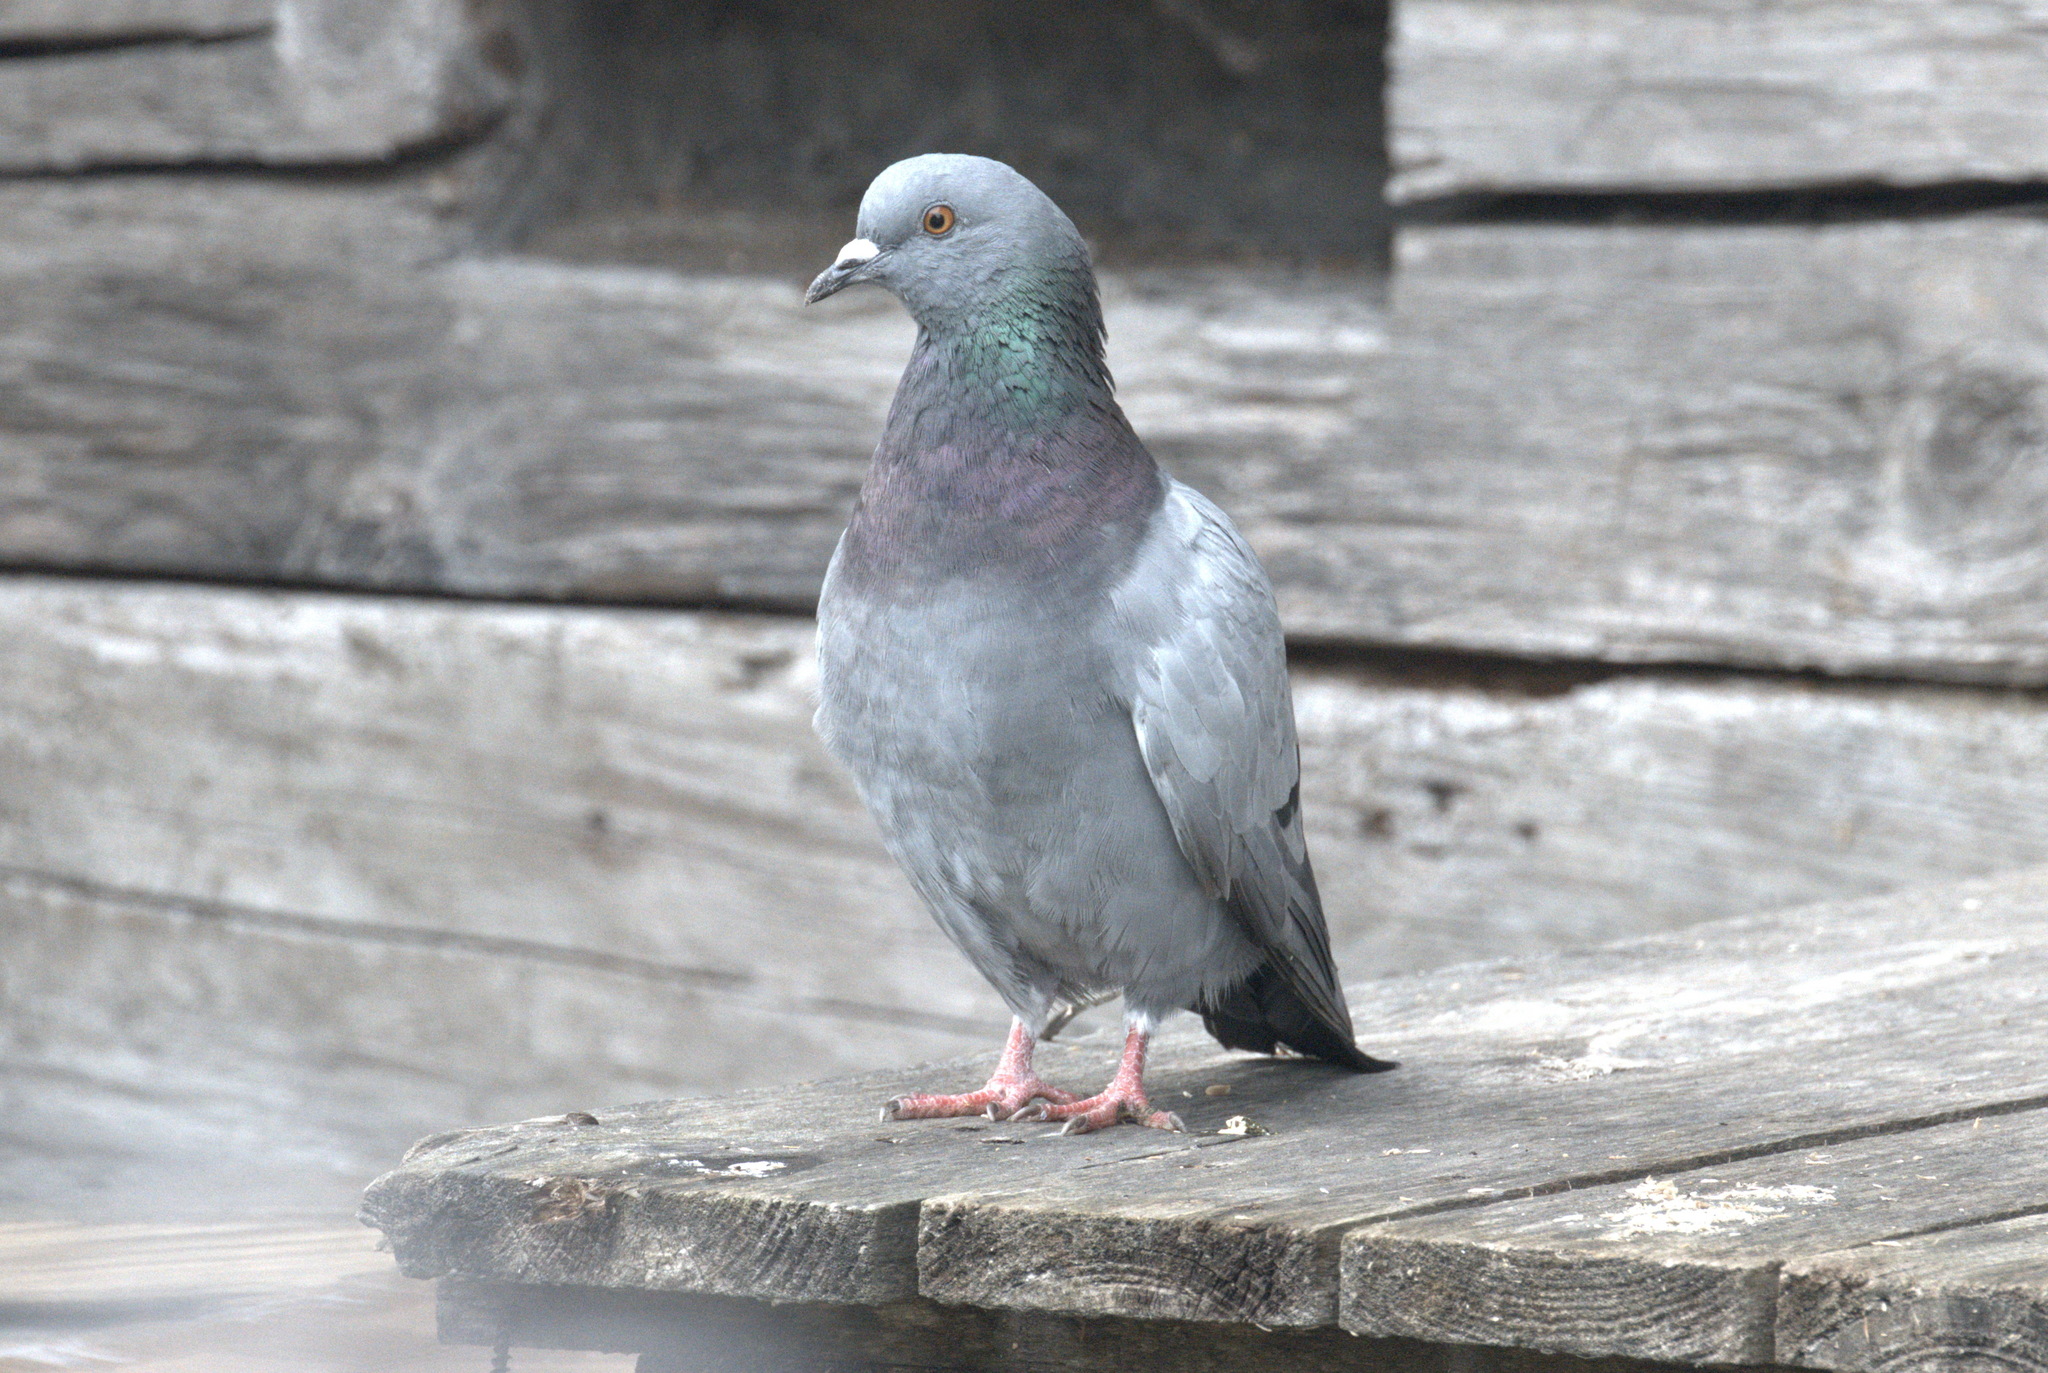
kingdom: Animalia
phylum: Chordata
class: Aves
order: Columbiformes
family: Columbidae
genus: Columba
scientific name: Columba livia
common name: Rock pigeon
